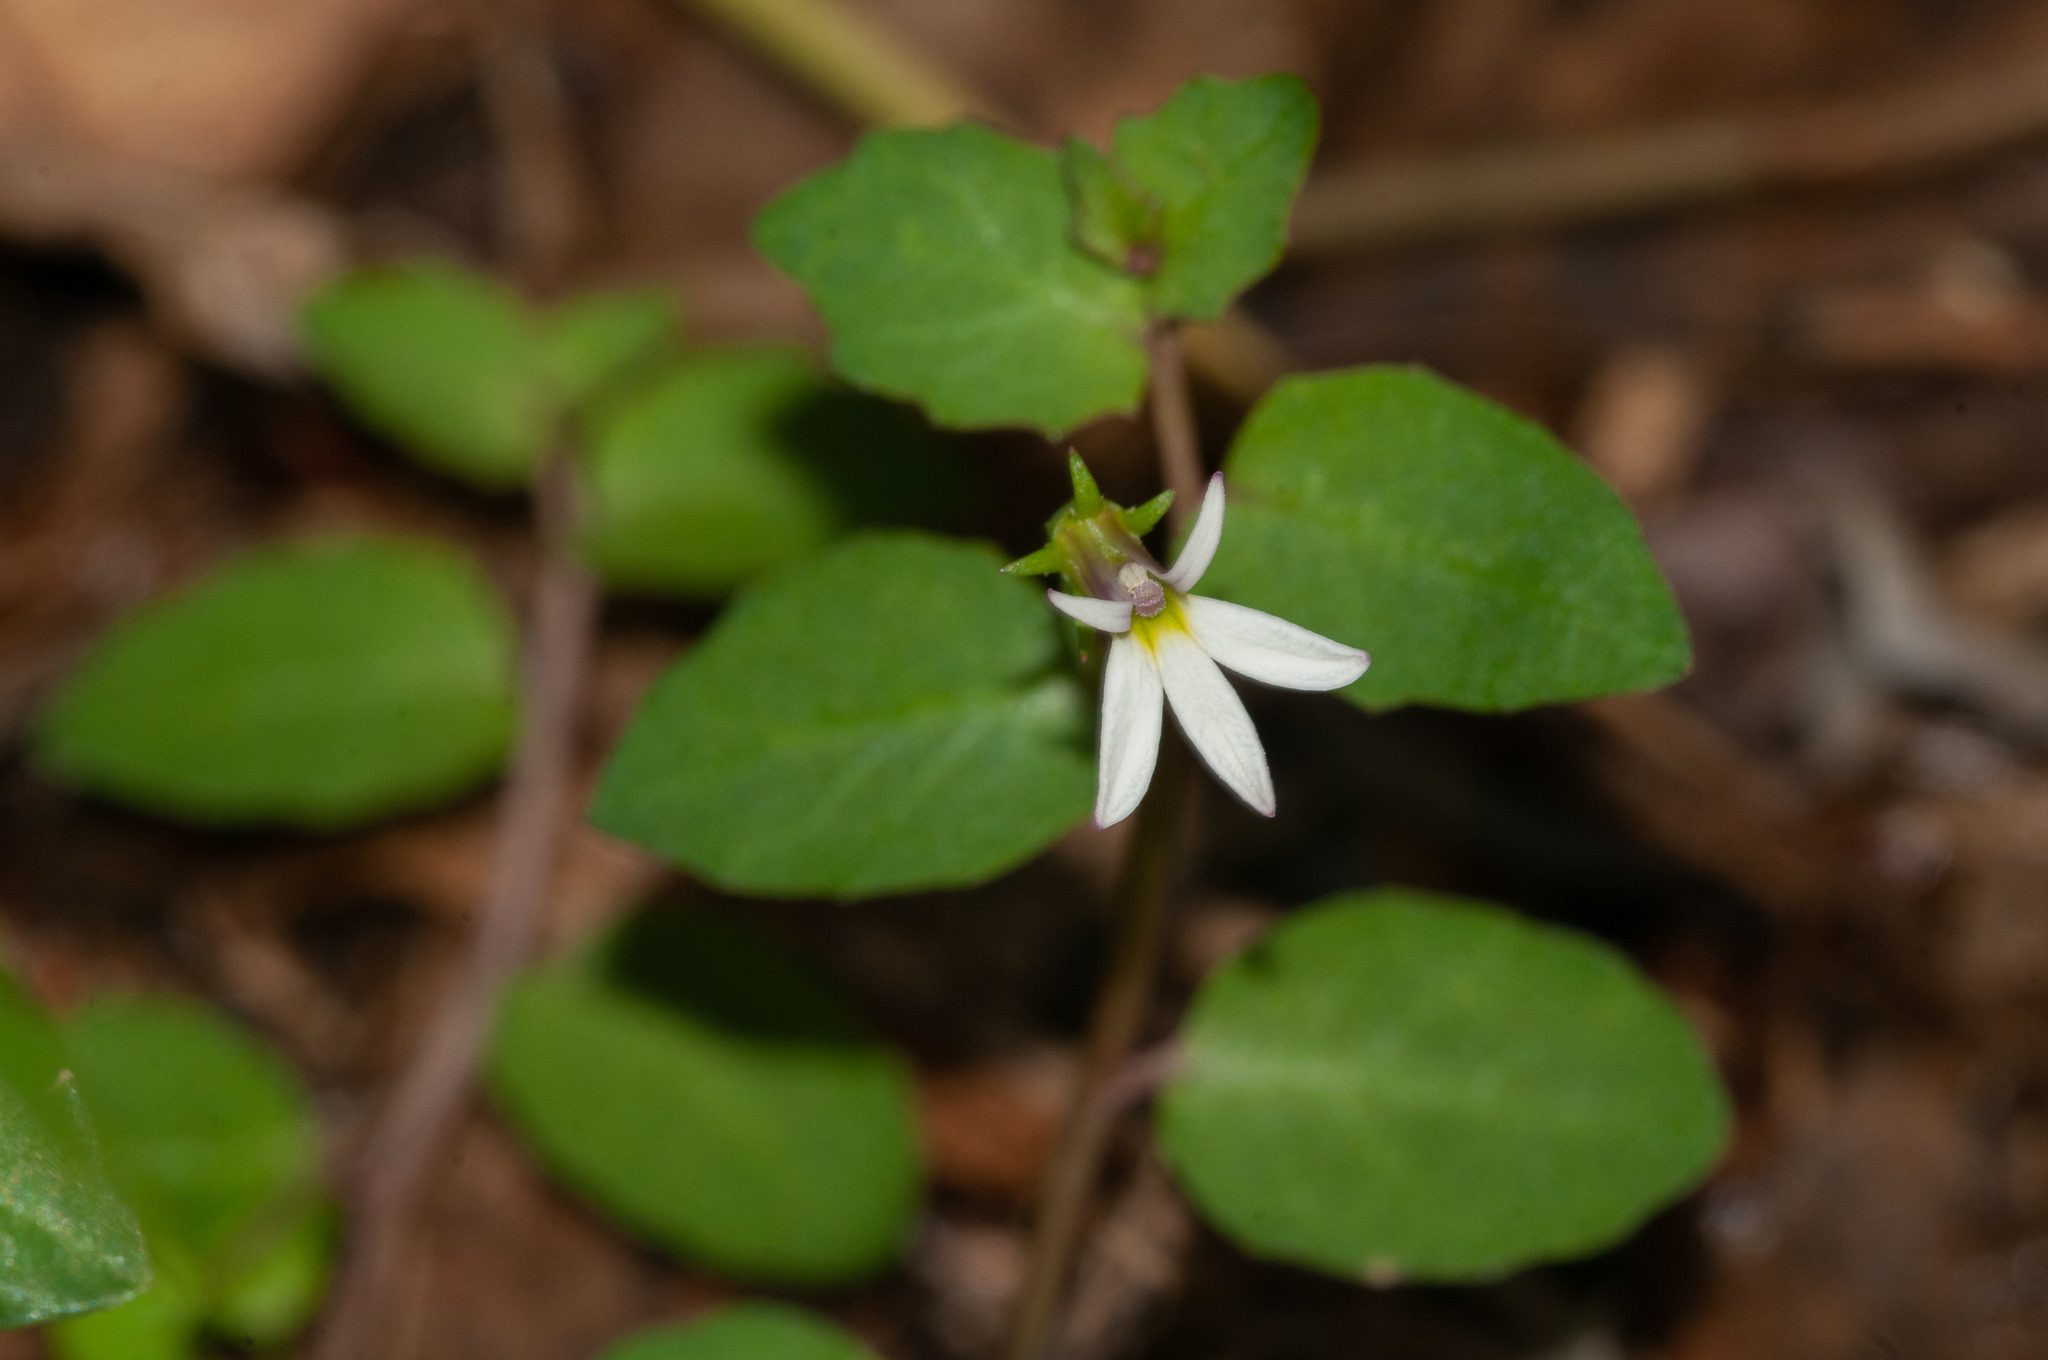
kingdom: Plantae
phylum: Tracheophyta
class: Magnoliopsida
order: Asterales
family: Campanulaceae
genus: Lobelia
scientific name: Lobelia purpurascens
